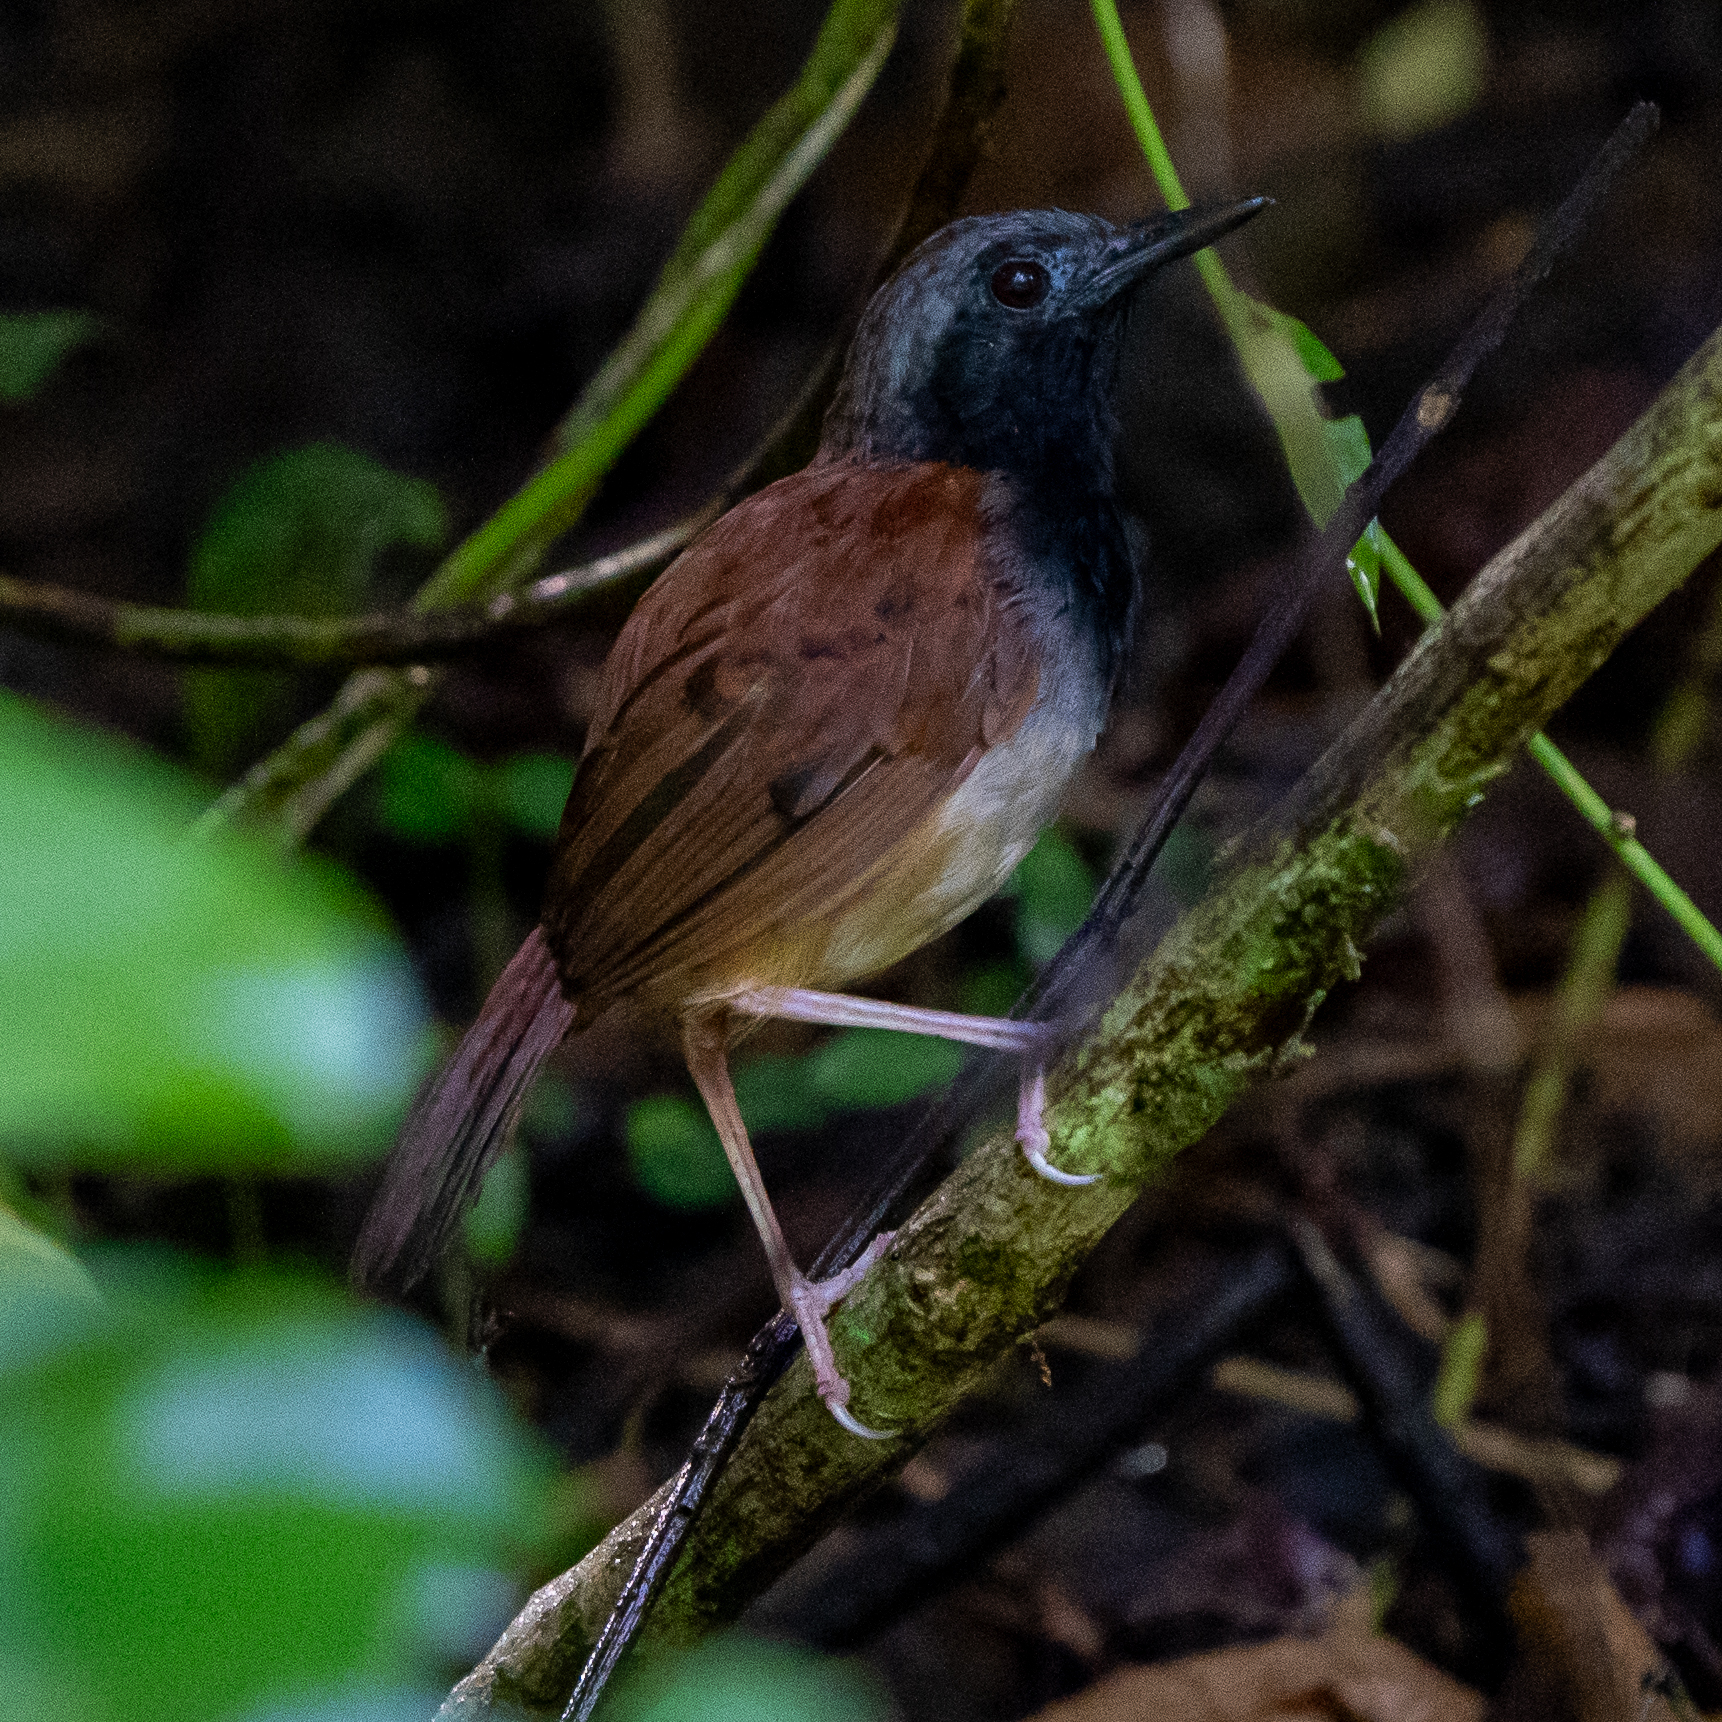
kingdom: Animalia
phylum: Chordata
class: Aves
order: Passeriformes
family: Thamnophilidae
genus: Myrmeciza
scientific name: Myrmeciza longipes
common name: White-bellied antbird
